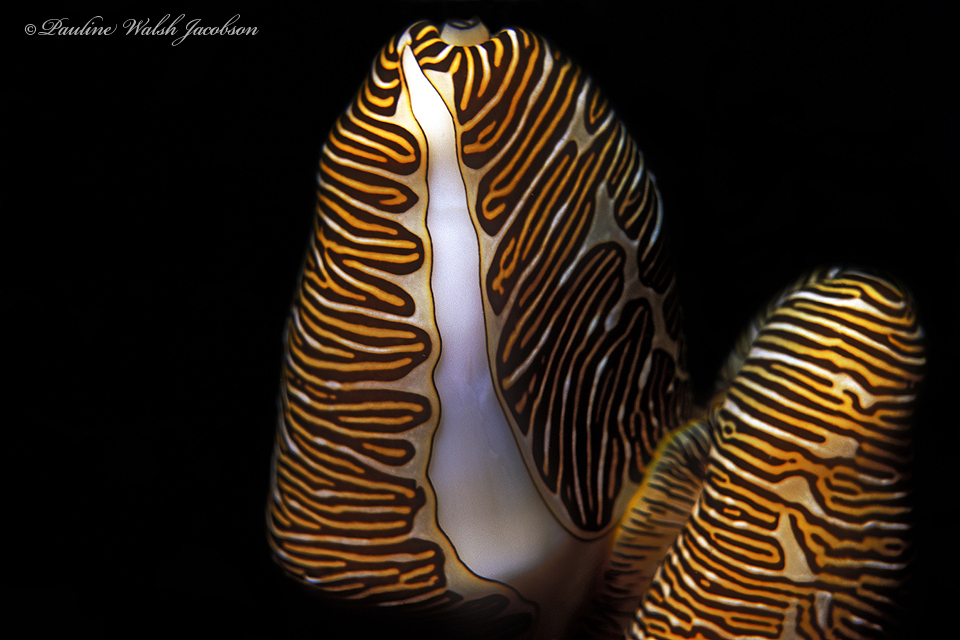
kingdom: Animalia
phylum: Mollusca
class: Gastropoda
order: Littorinimorpha
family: Ovulidae
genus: Cyphoma
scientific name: Cyphoma signatum
